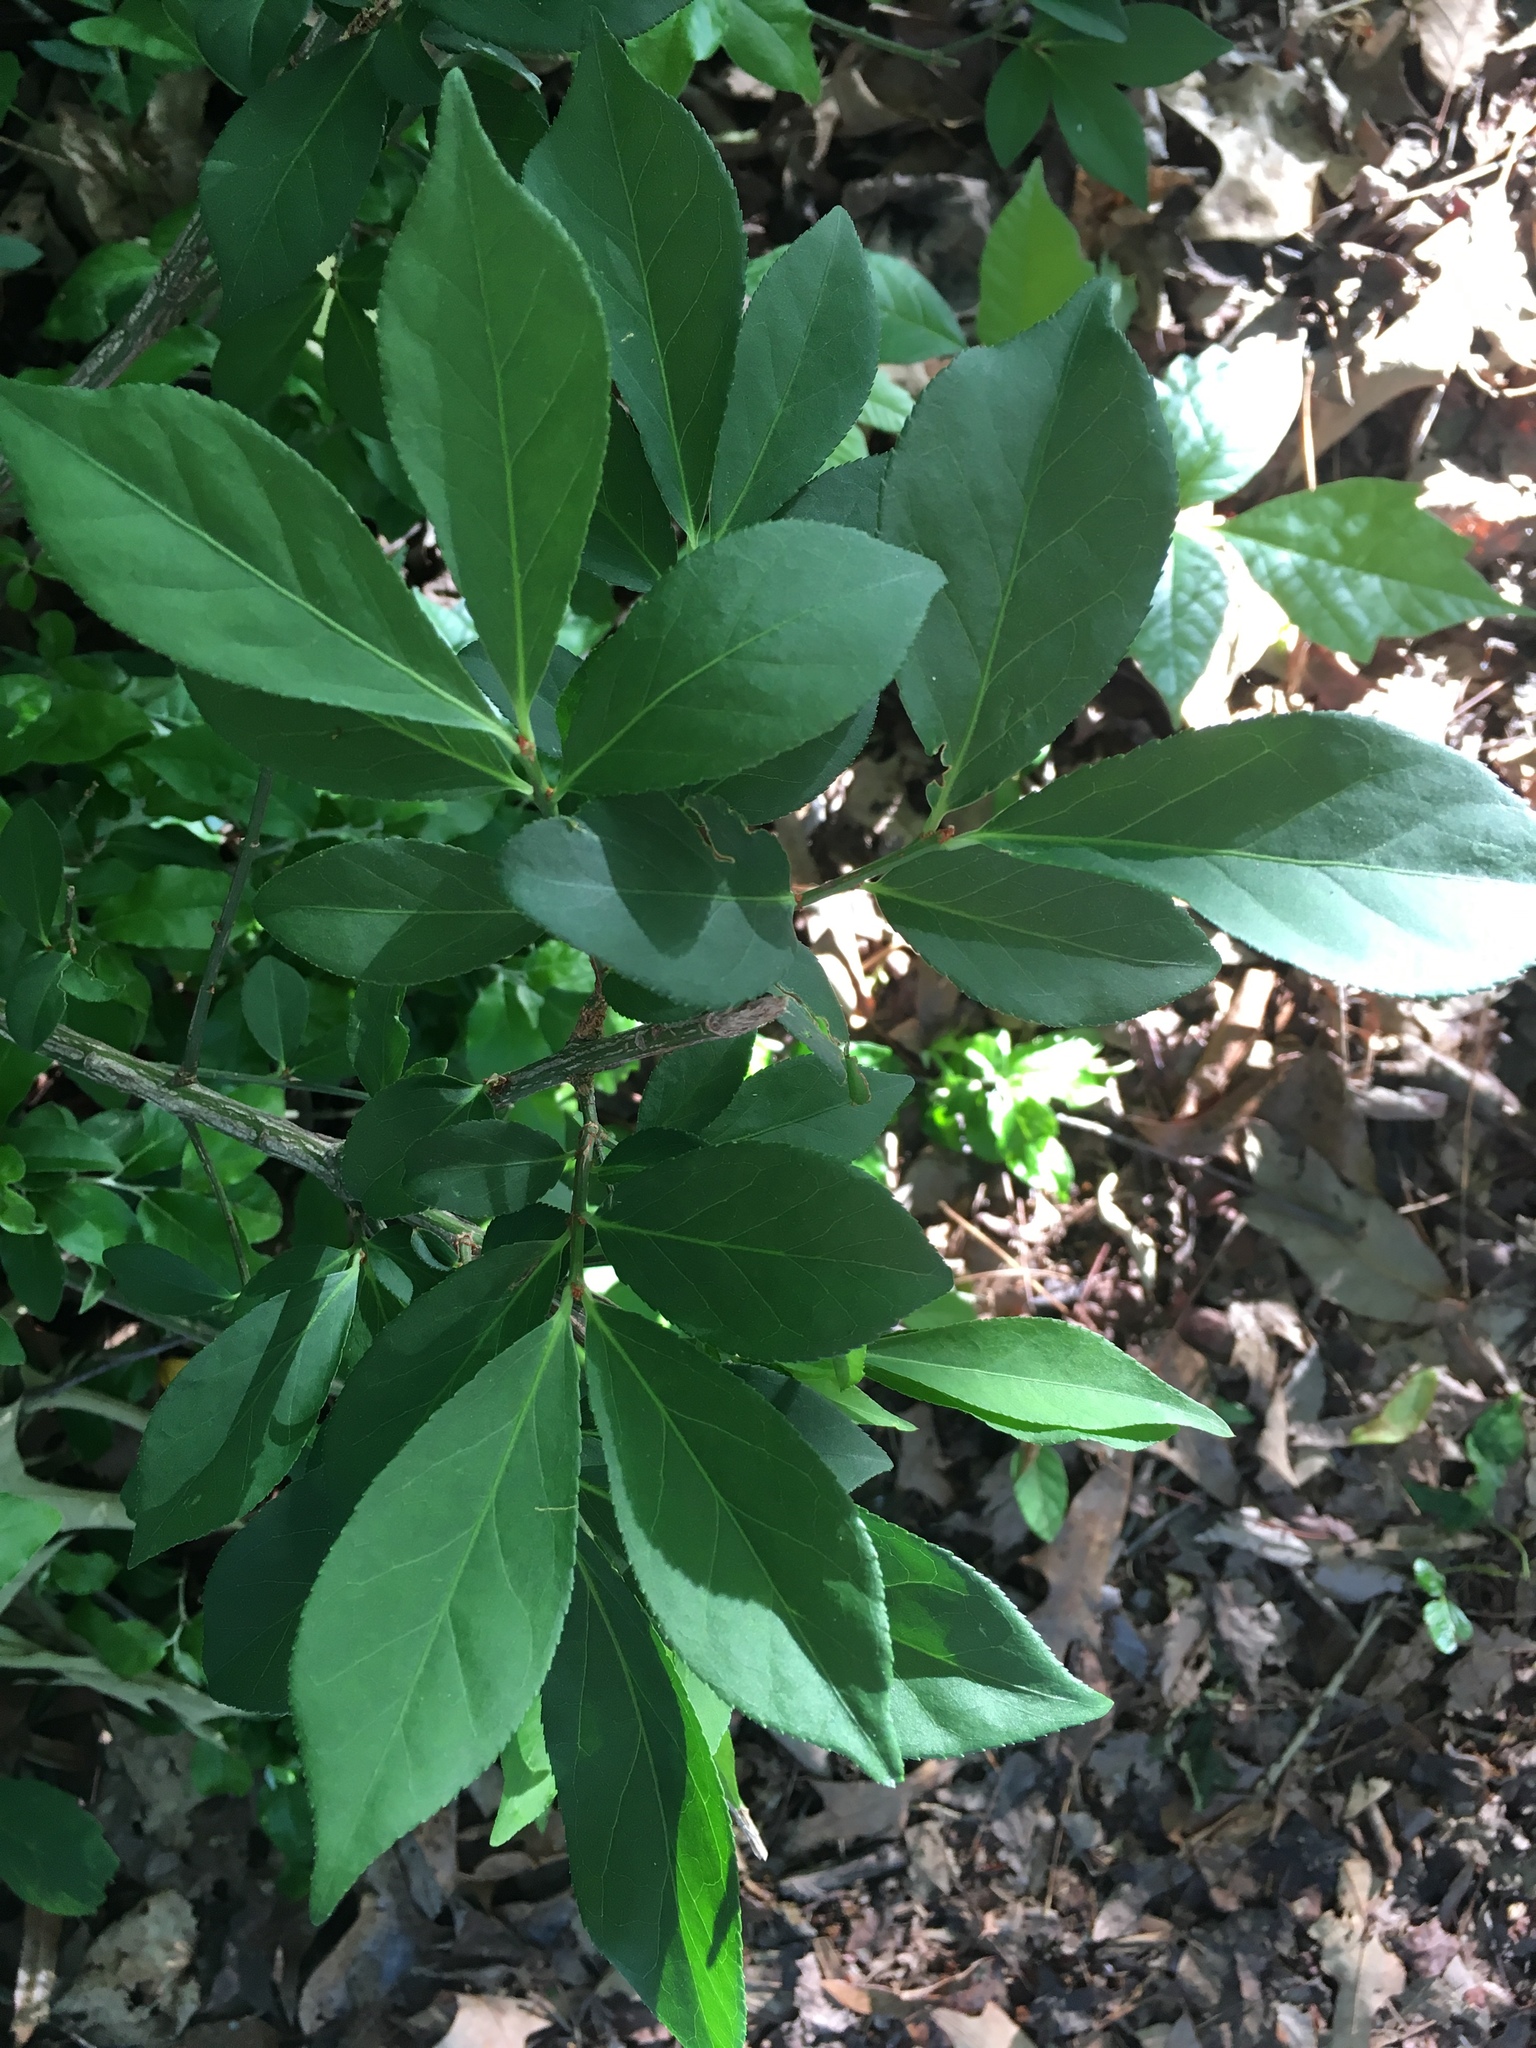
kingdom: Plantae
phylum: Tracheophyta
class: Magnoliopsida
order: Celastrales
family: Celastraceae
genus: Euonymus
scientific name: Euonymus alatus
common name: Winged euonymus
